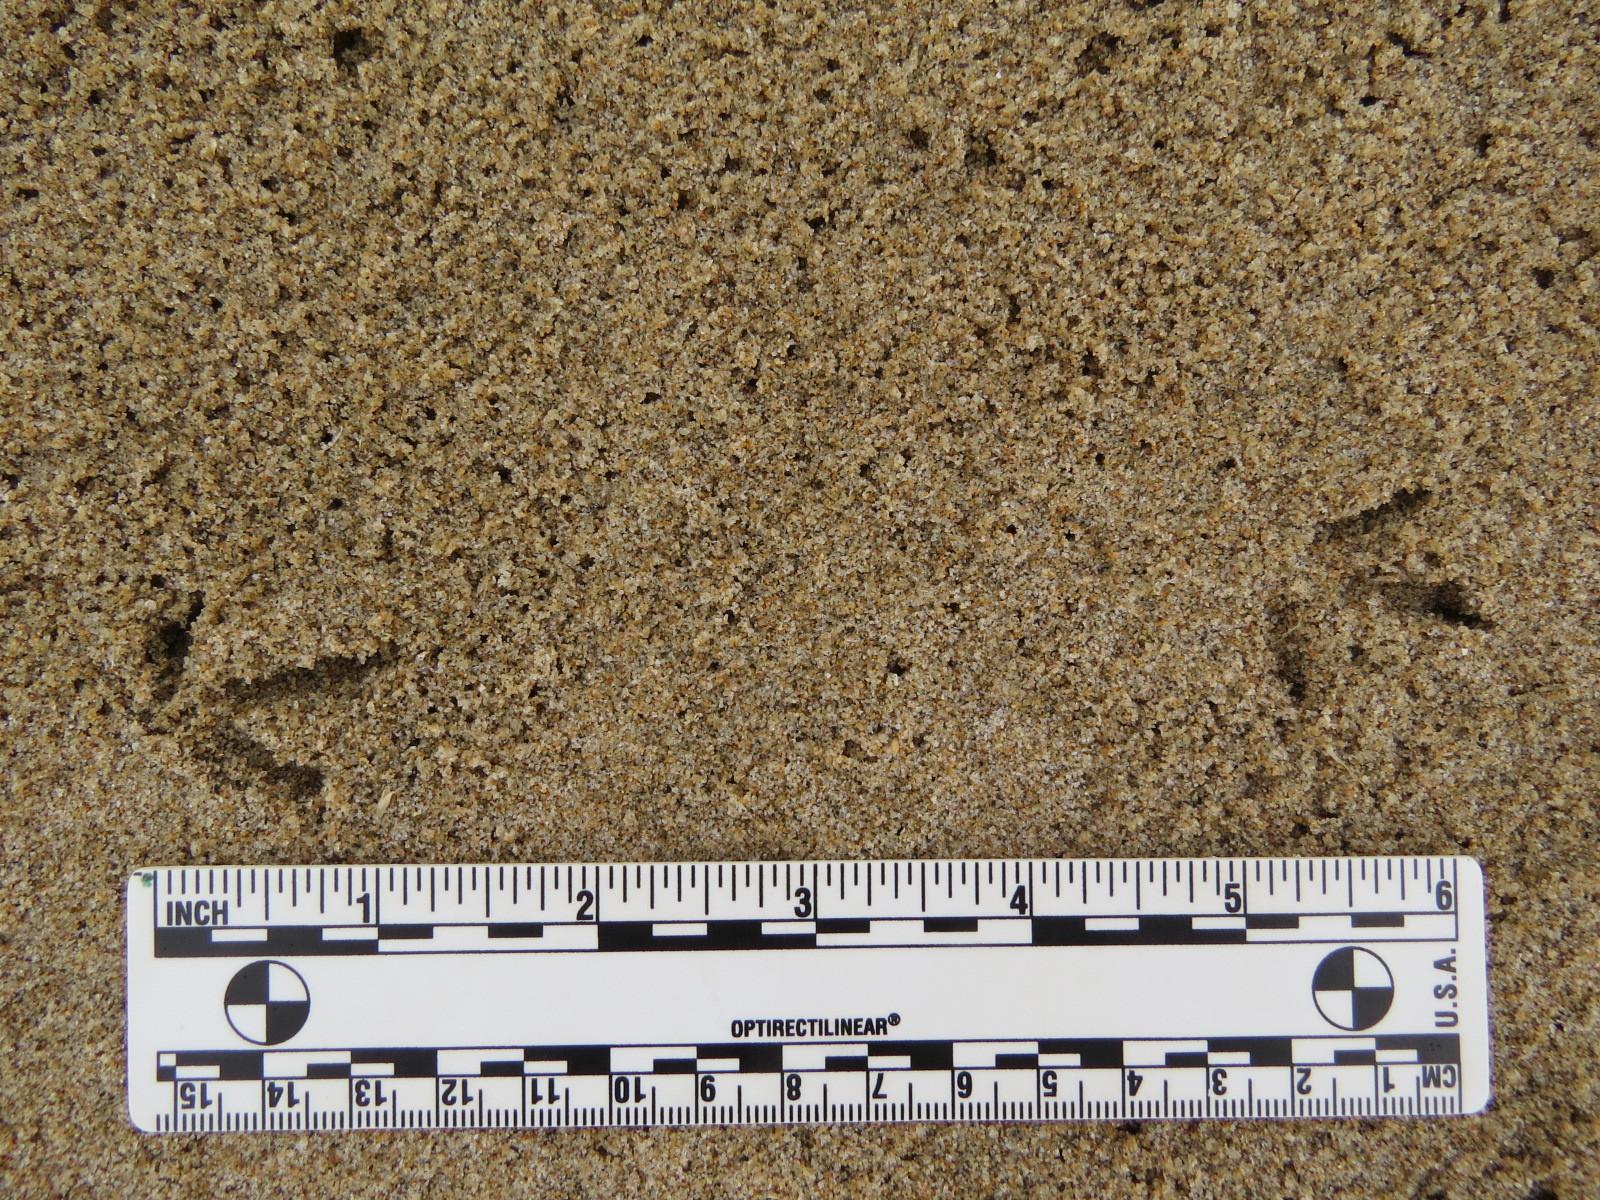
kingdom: Animalia
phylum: Chordata
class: Aves
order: Charadriiformes
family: Charadriidae
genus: Charadrius
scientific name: Charadrius vociferus
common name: Killdeer
